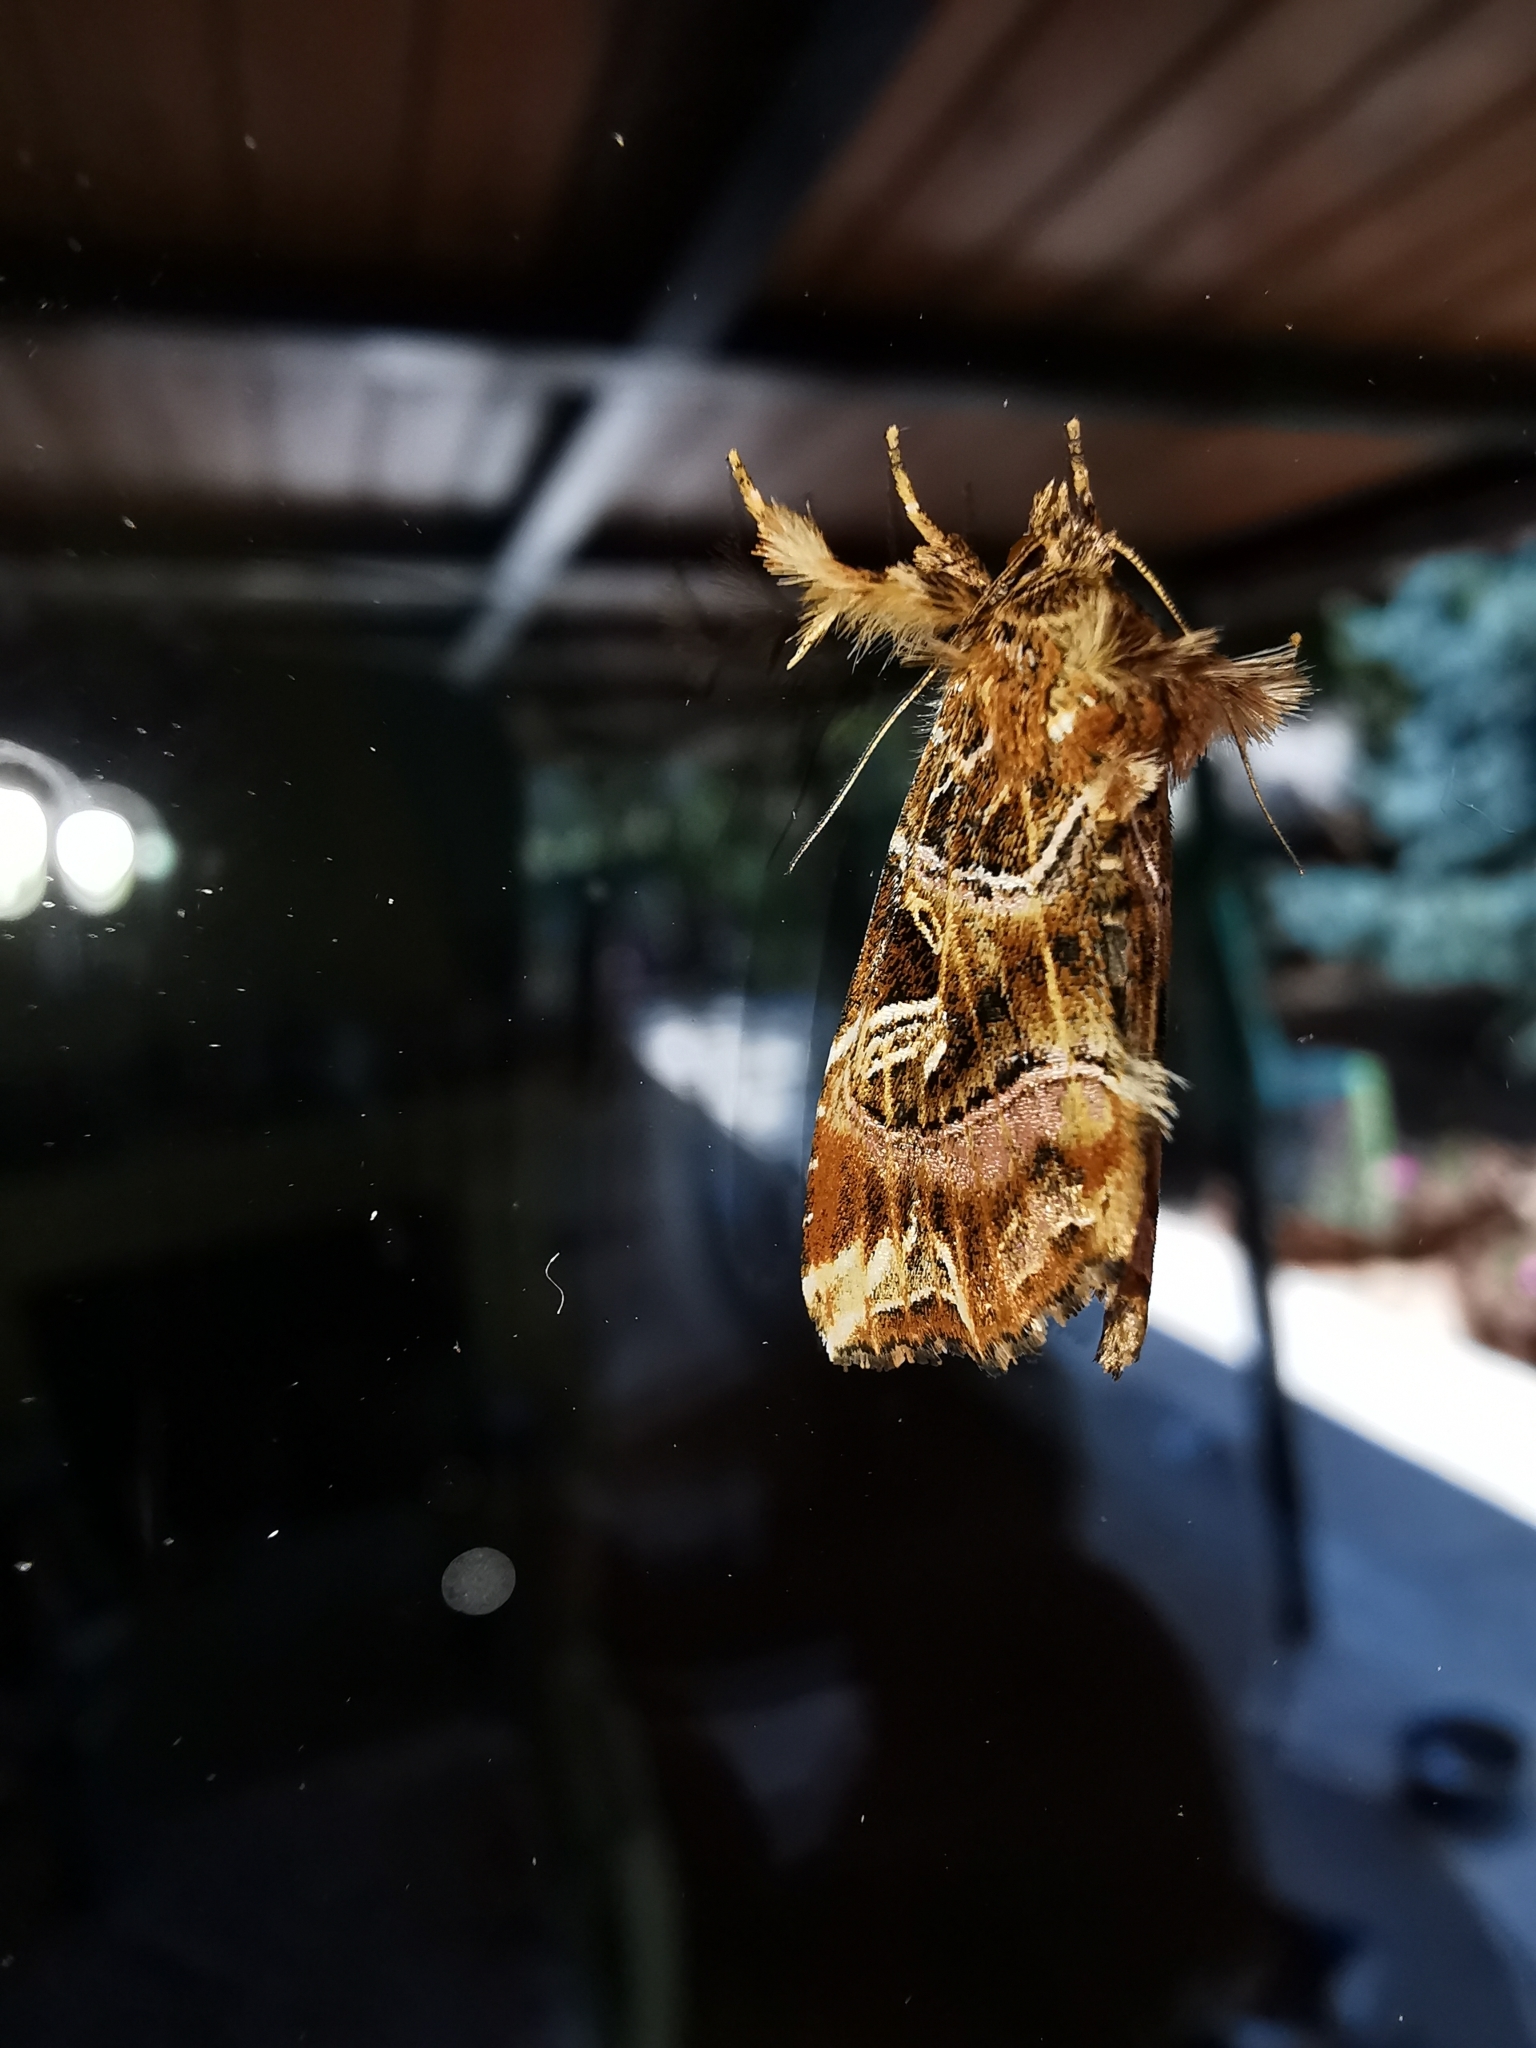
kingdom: Animalia
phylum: Arthropoda
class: Insecta
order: Lepidoptera
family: Noctuidae
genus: Callopistria
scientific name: Callopistria juventina
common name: Latin
